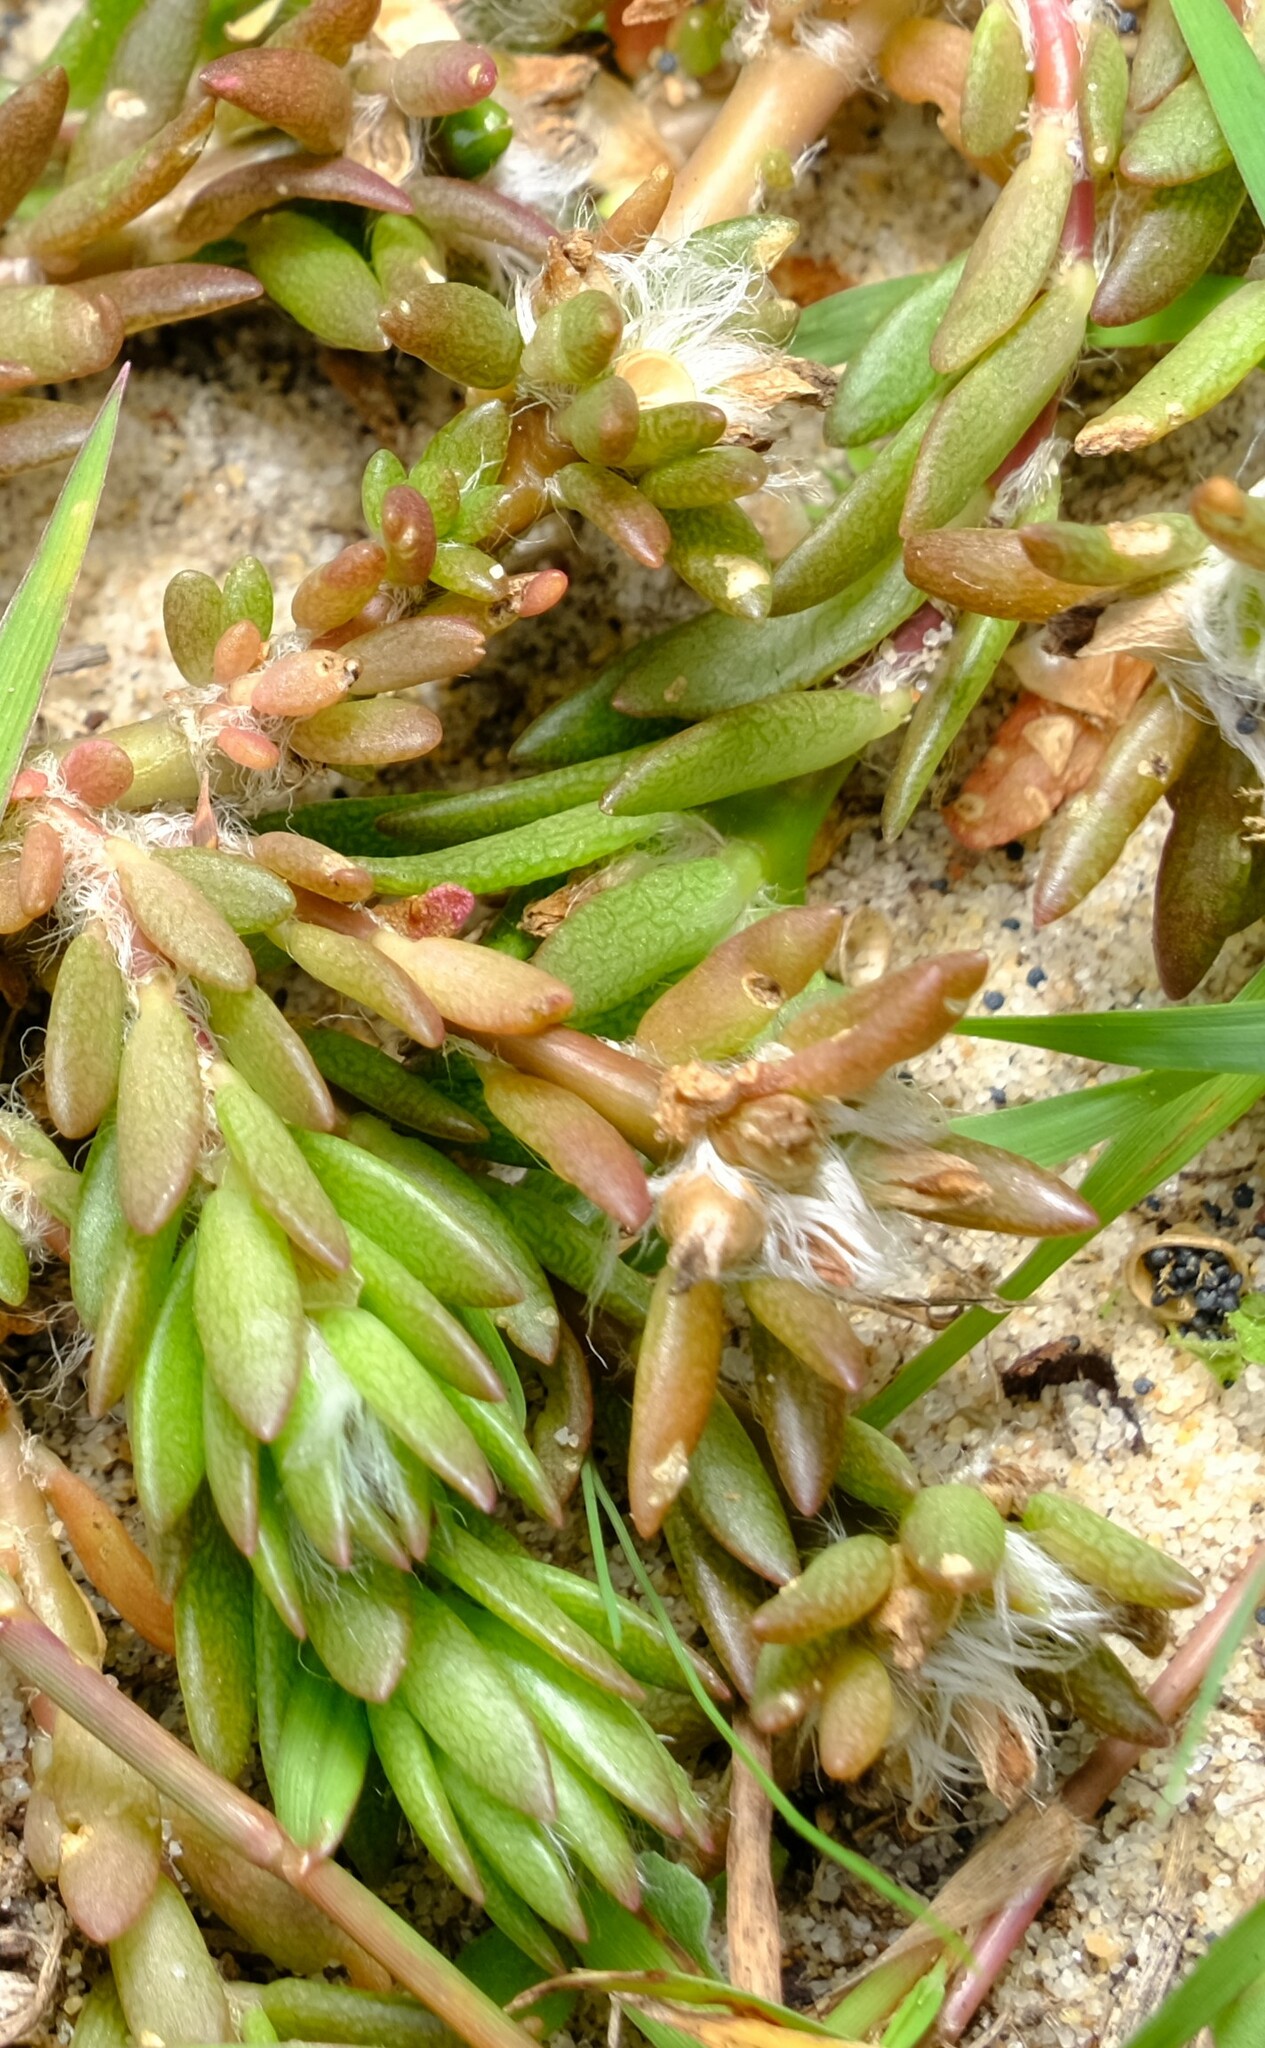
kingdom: Plantae
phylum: Tracheophyta
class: Magnoliopsida
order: Caryophyllales
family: Portulacaceae
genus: Portulaca
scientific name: Portulaca pilosa
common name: Kiss me quick
